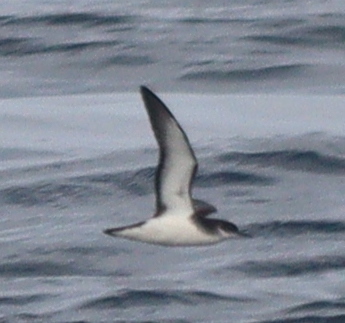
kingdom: Animalia
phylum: Chordata
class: Aves
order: Procellariiformes
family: Procellariidae
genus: Puffinus
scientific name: Puffinus puffinus
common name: Manx shearwater
